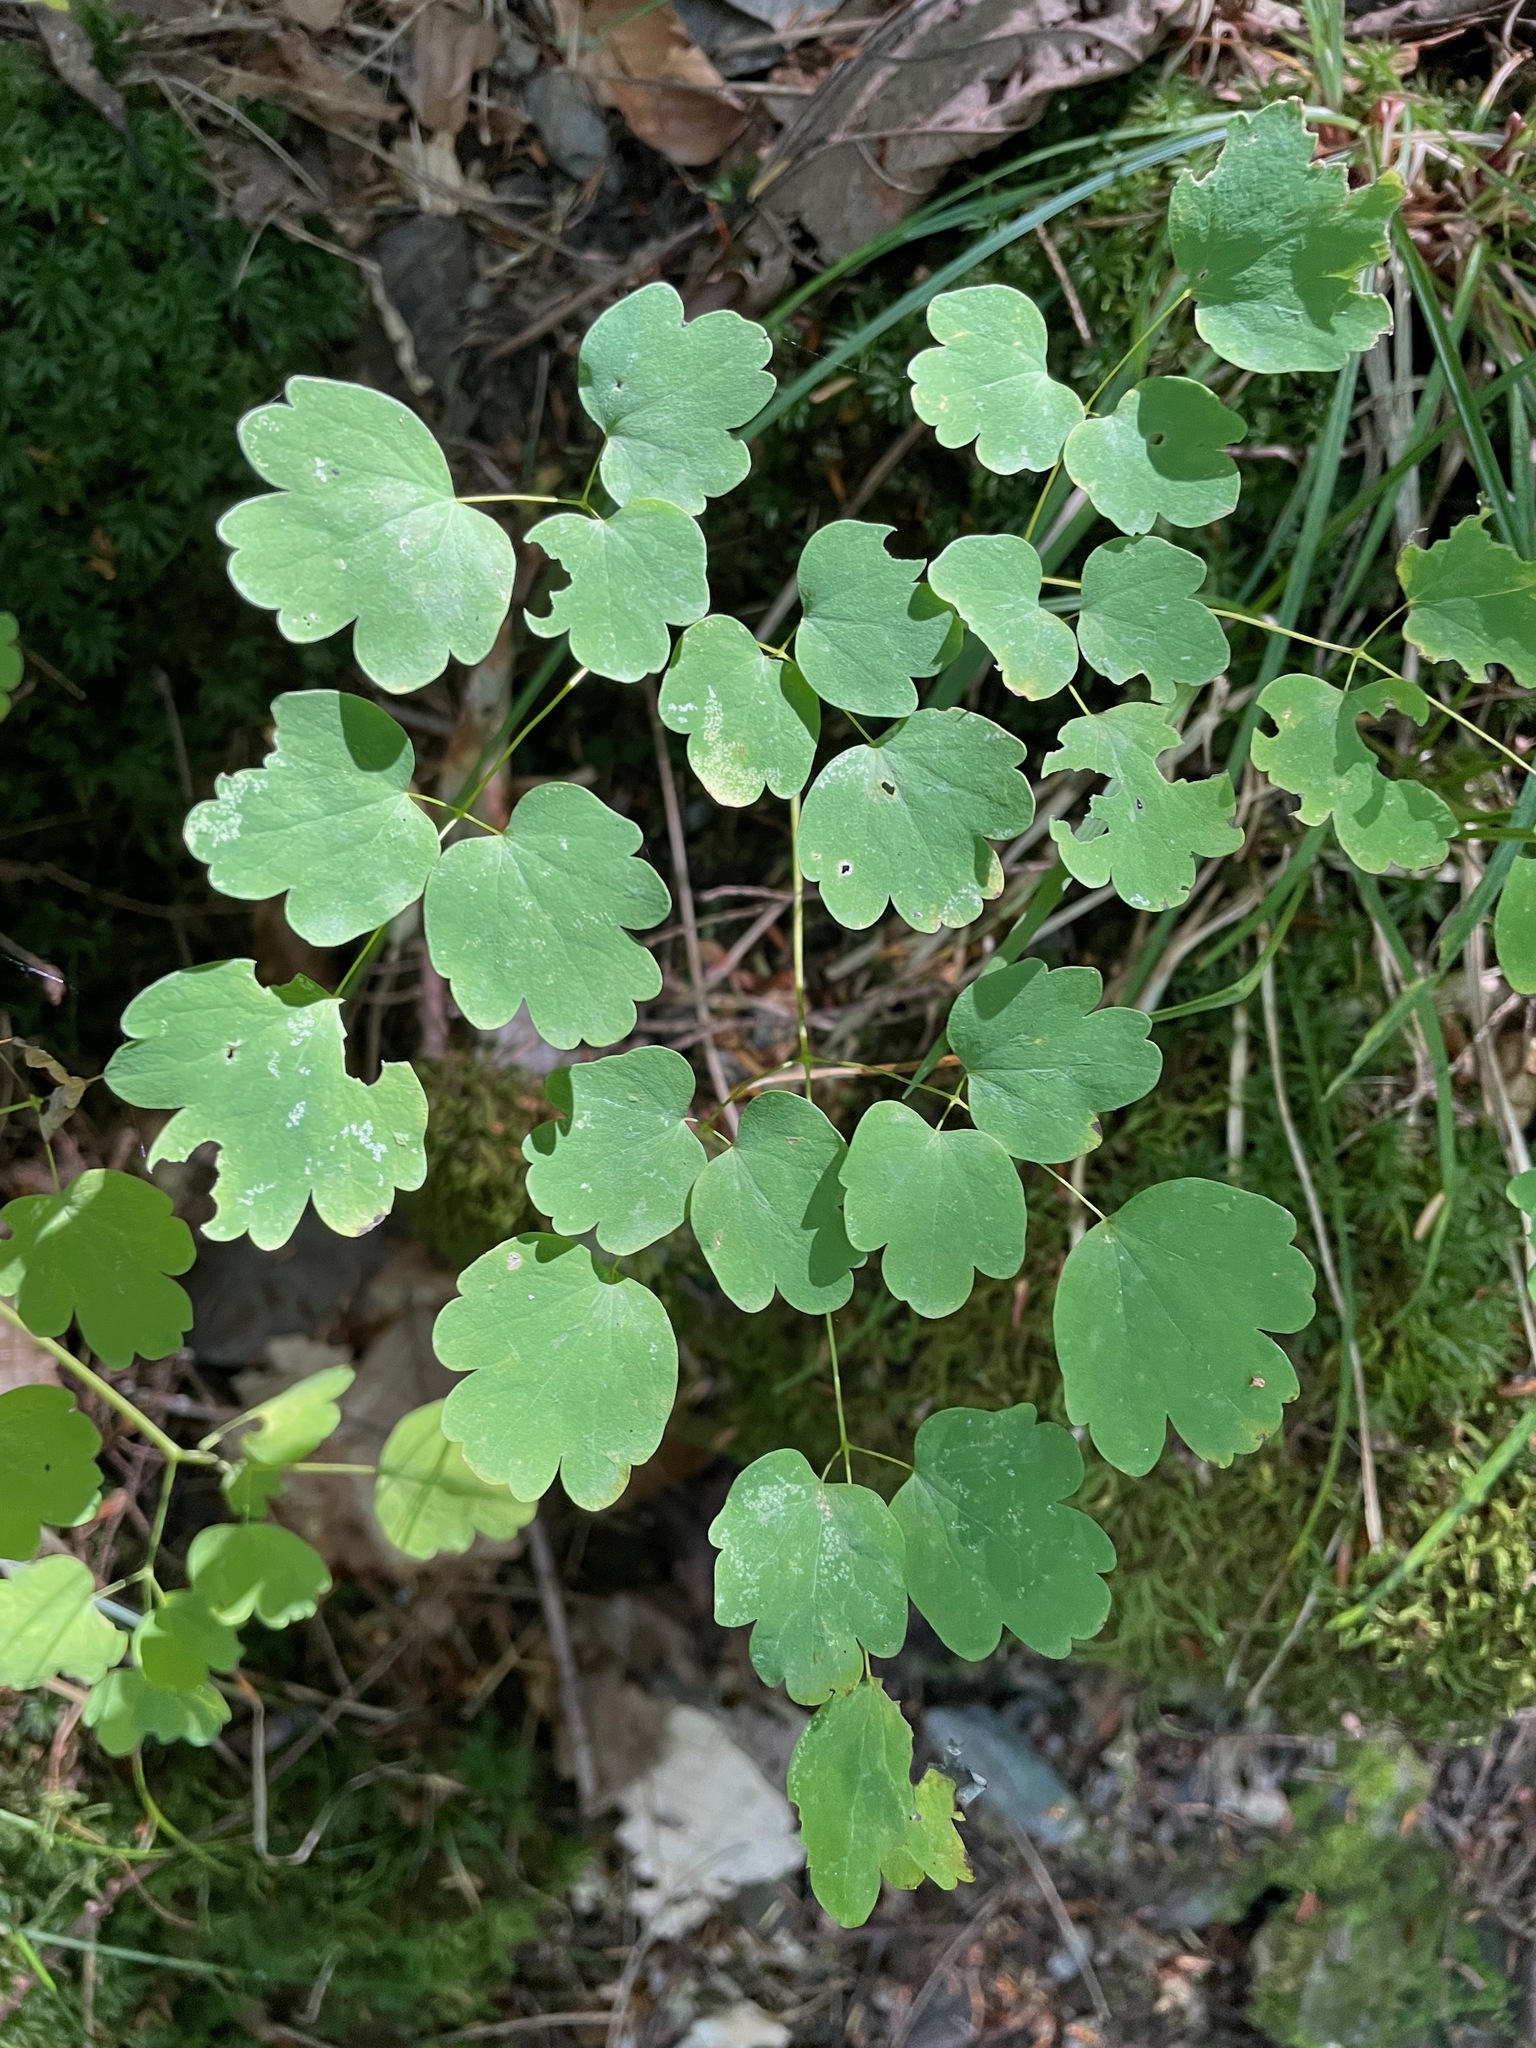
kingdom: Plantae
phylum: Tracheophyta
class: Magnoliopsida
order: Ranunculales
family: Ranunculaceae
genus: Thalictrum
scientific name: Thalictrum dioicum
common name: Early meadow-rue
